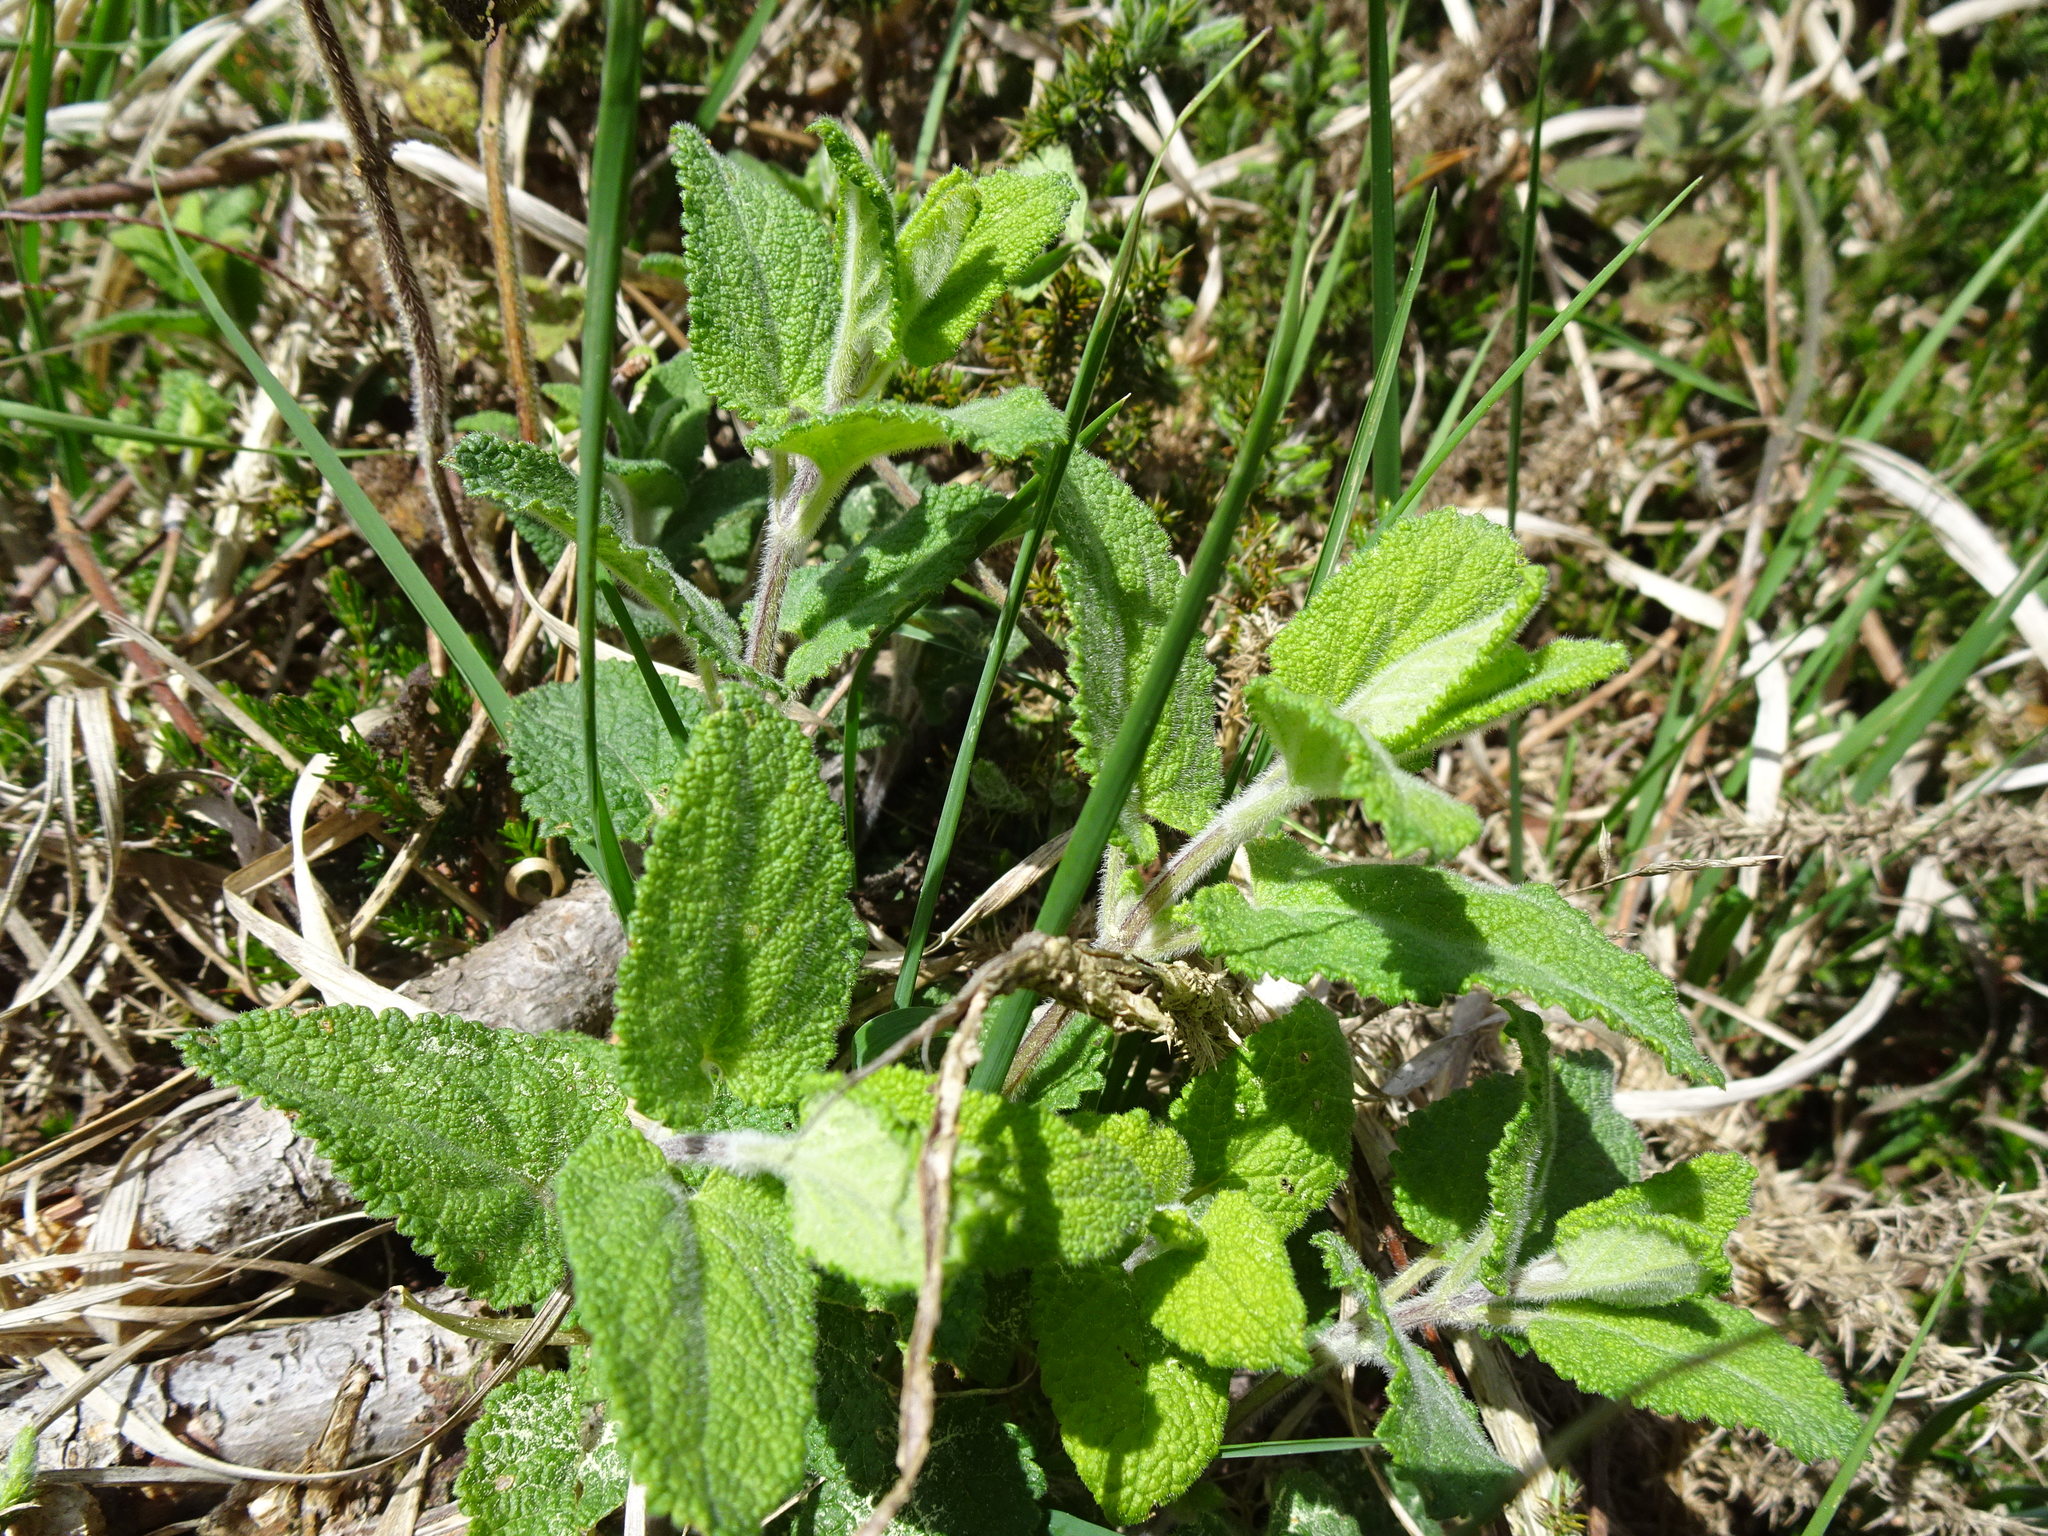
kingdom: Plantae
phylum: Tracheophyta
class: Magnoliopsida
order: Lamiales
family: Lamiaceae
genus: Teucrium
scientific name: Teucrium scorodonia
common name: Woodland germander
